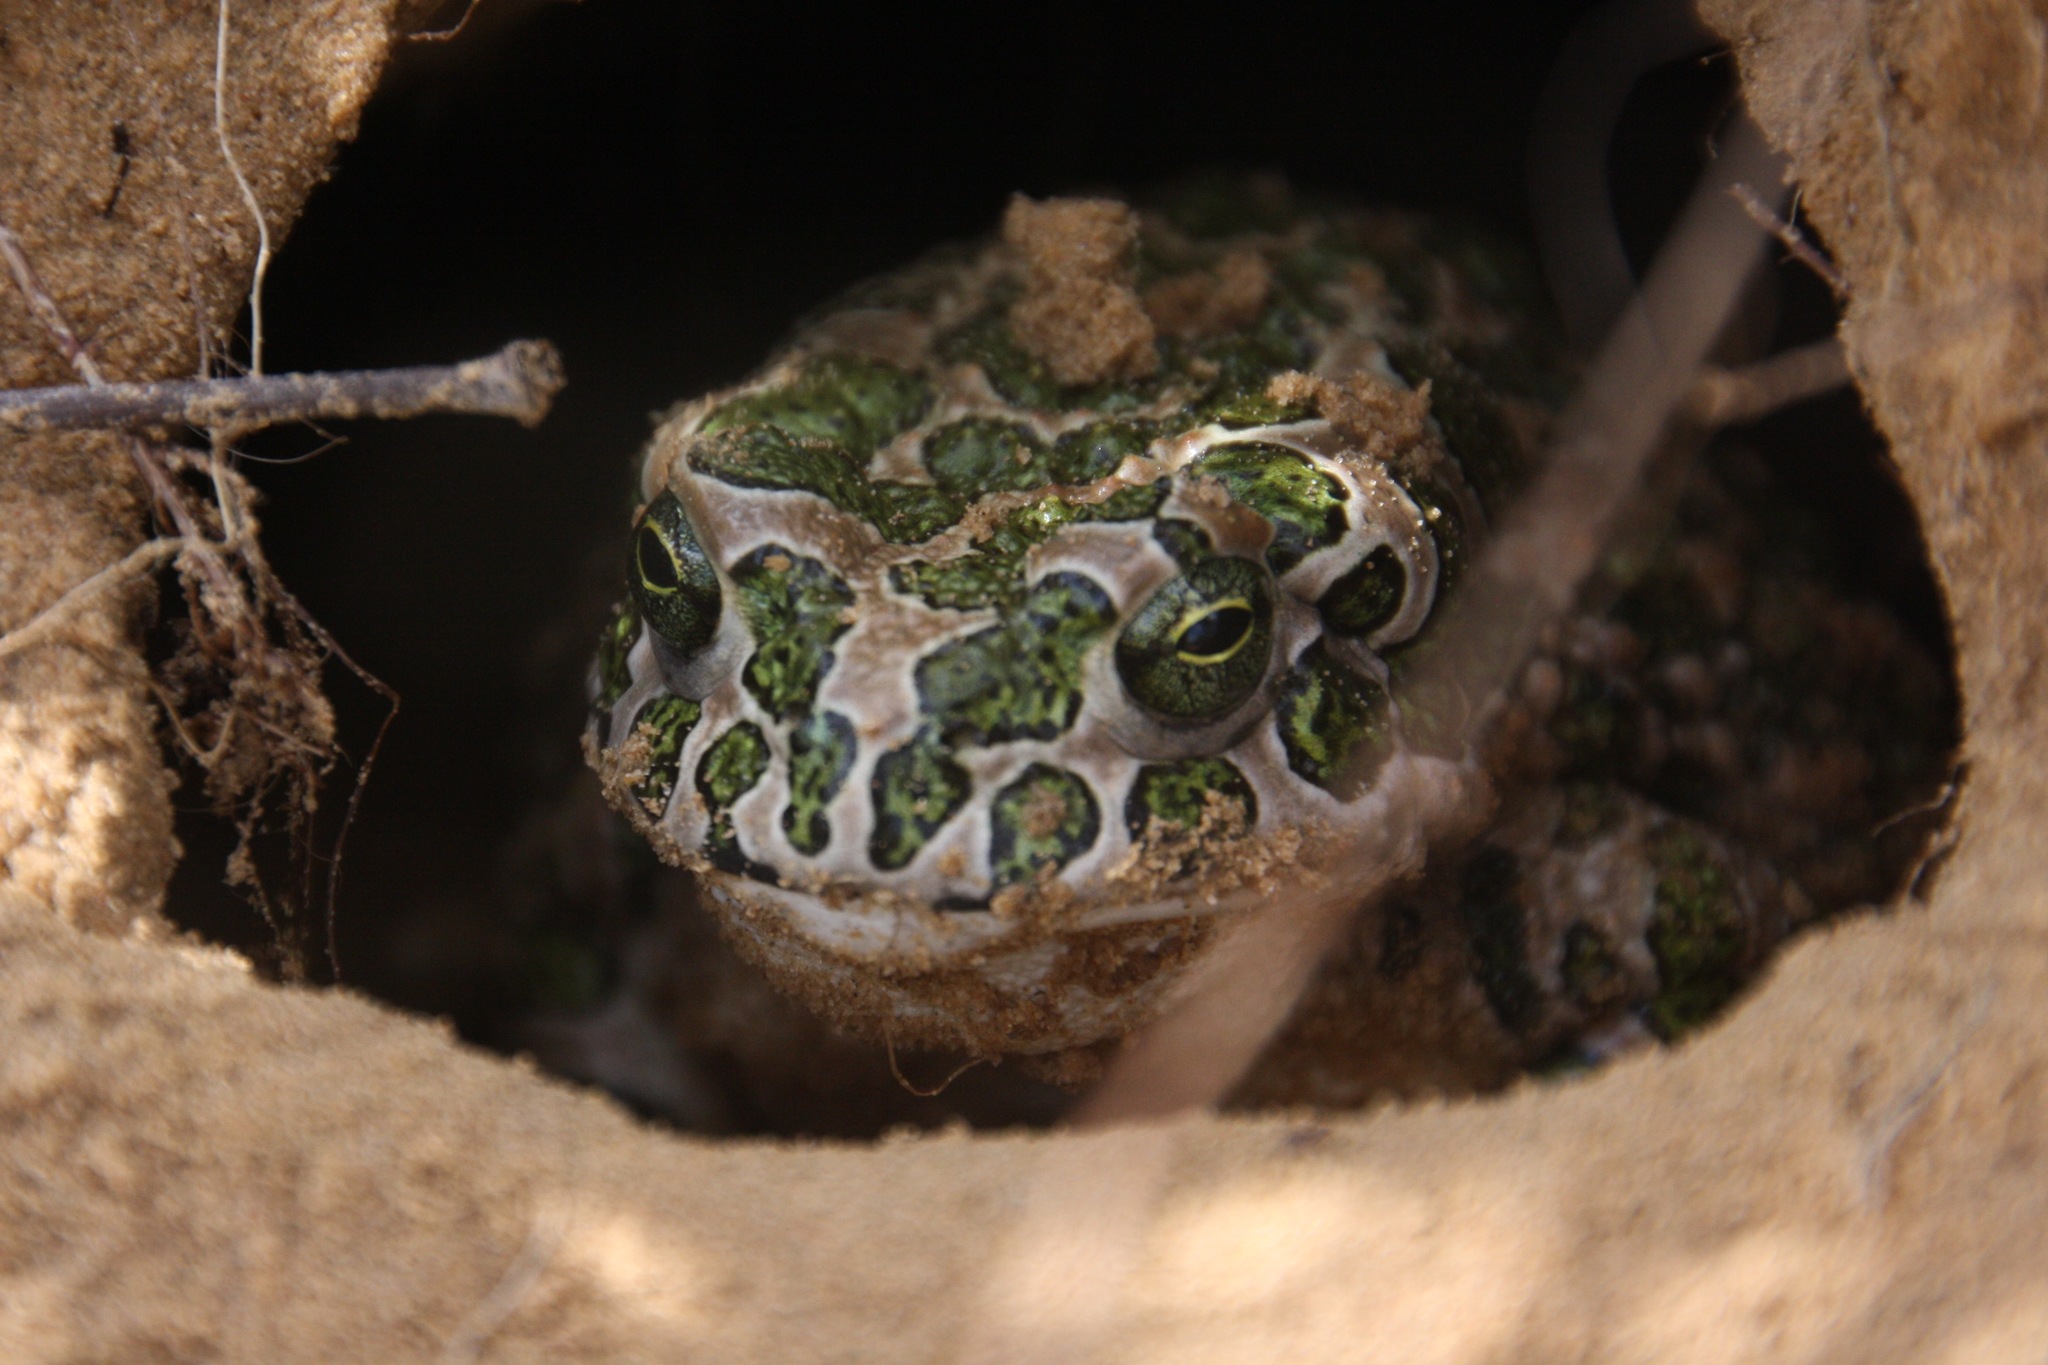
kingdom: Animalia
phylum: Chordata
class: Amphibia
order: Anura
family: Bufonidae
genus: Bufotes
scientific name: Bufotes viridis
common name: European green toad
